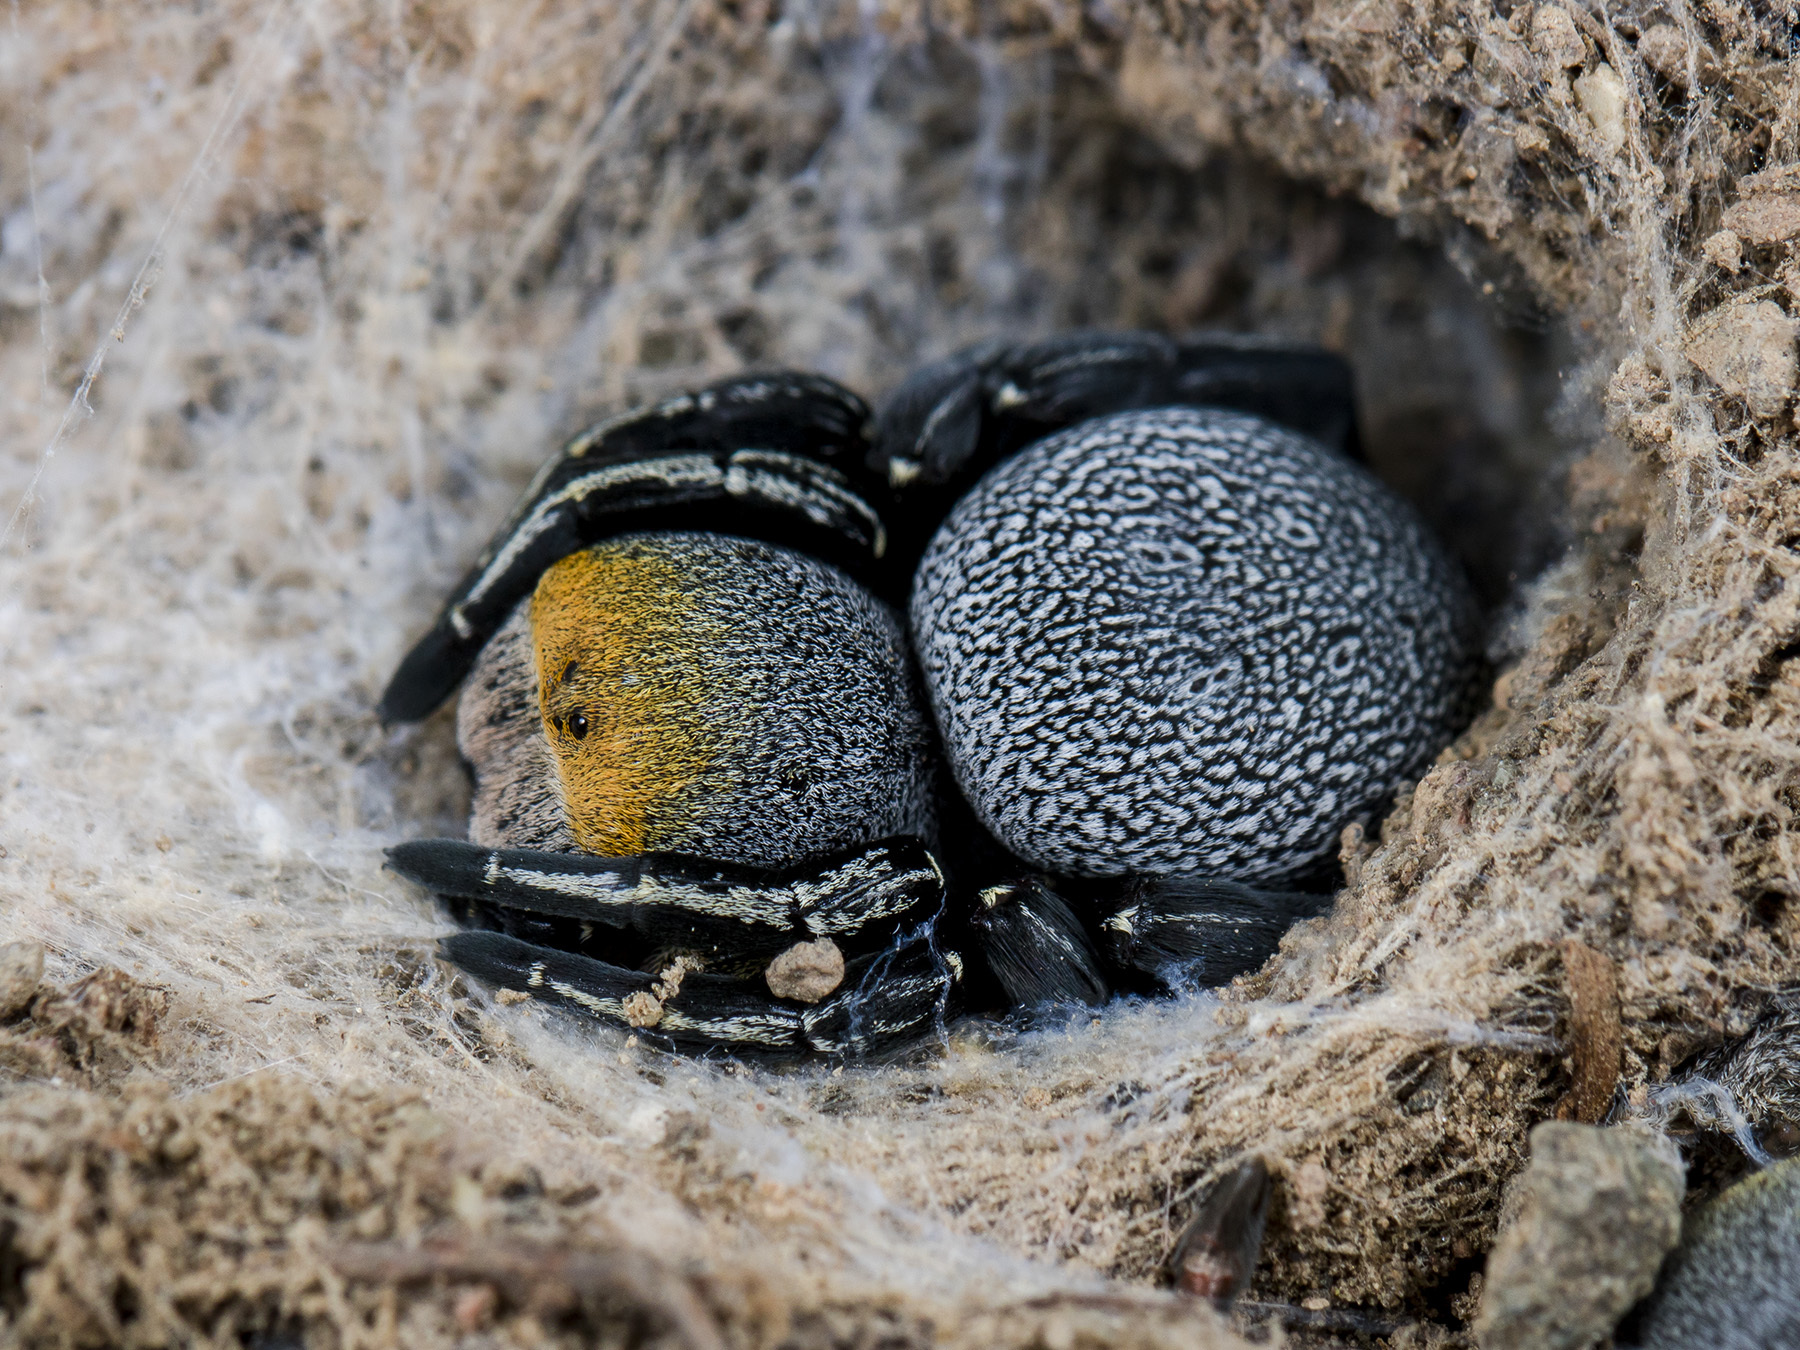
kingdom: Animalia
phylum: Arthropoda
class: Arachnida
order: Araneae
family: Eresidae
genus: Eresus
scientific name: Eresus kollari
